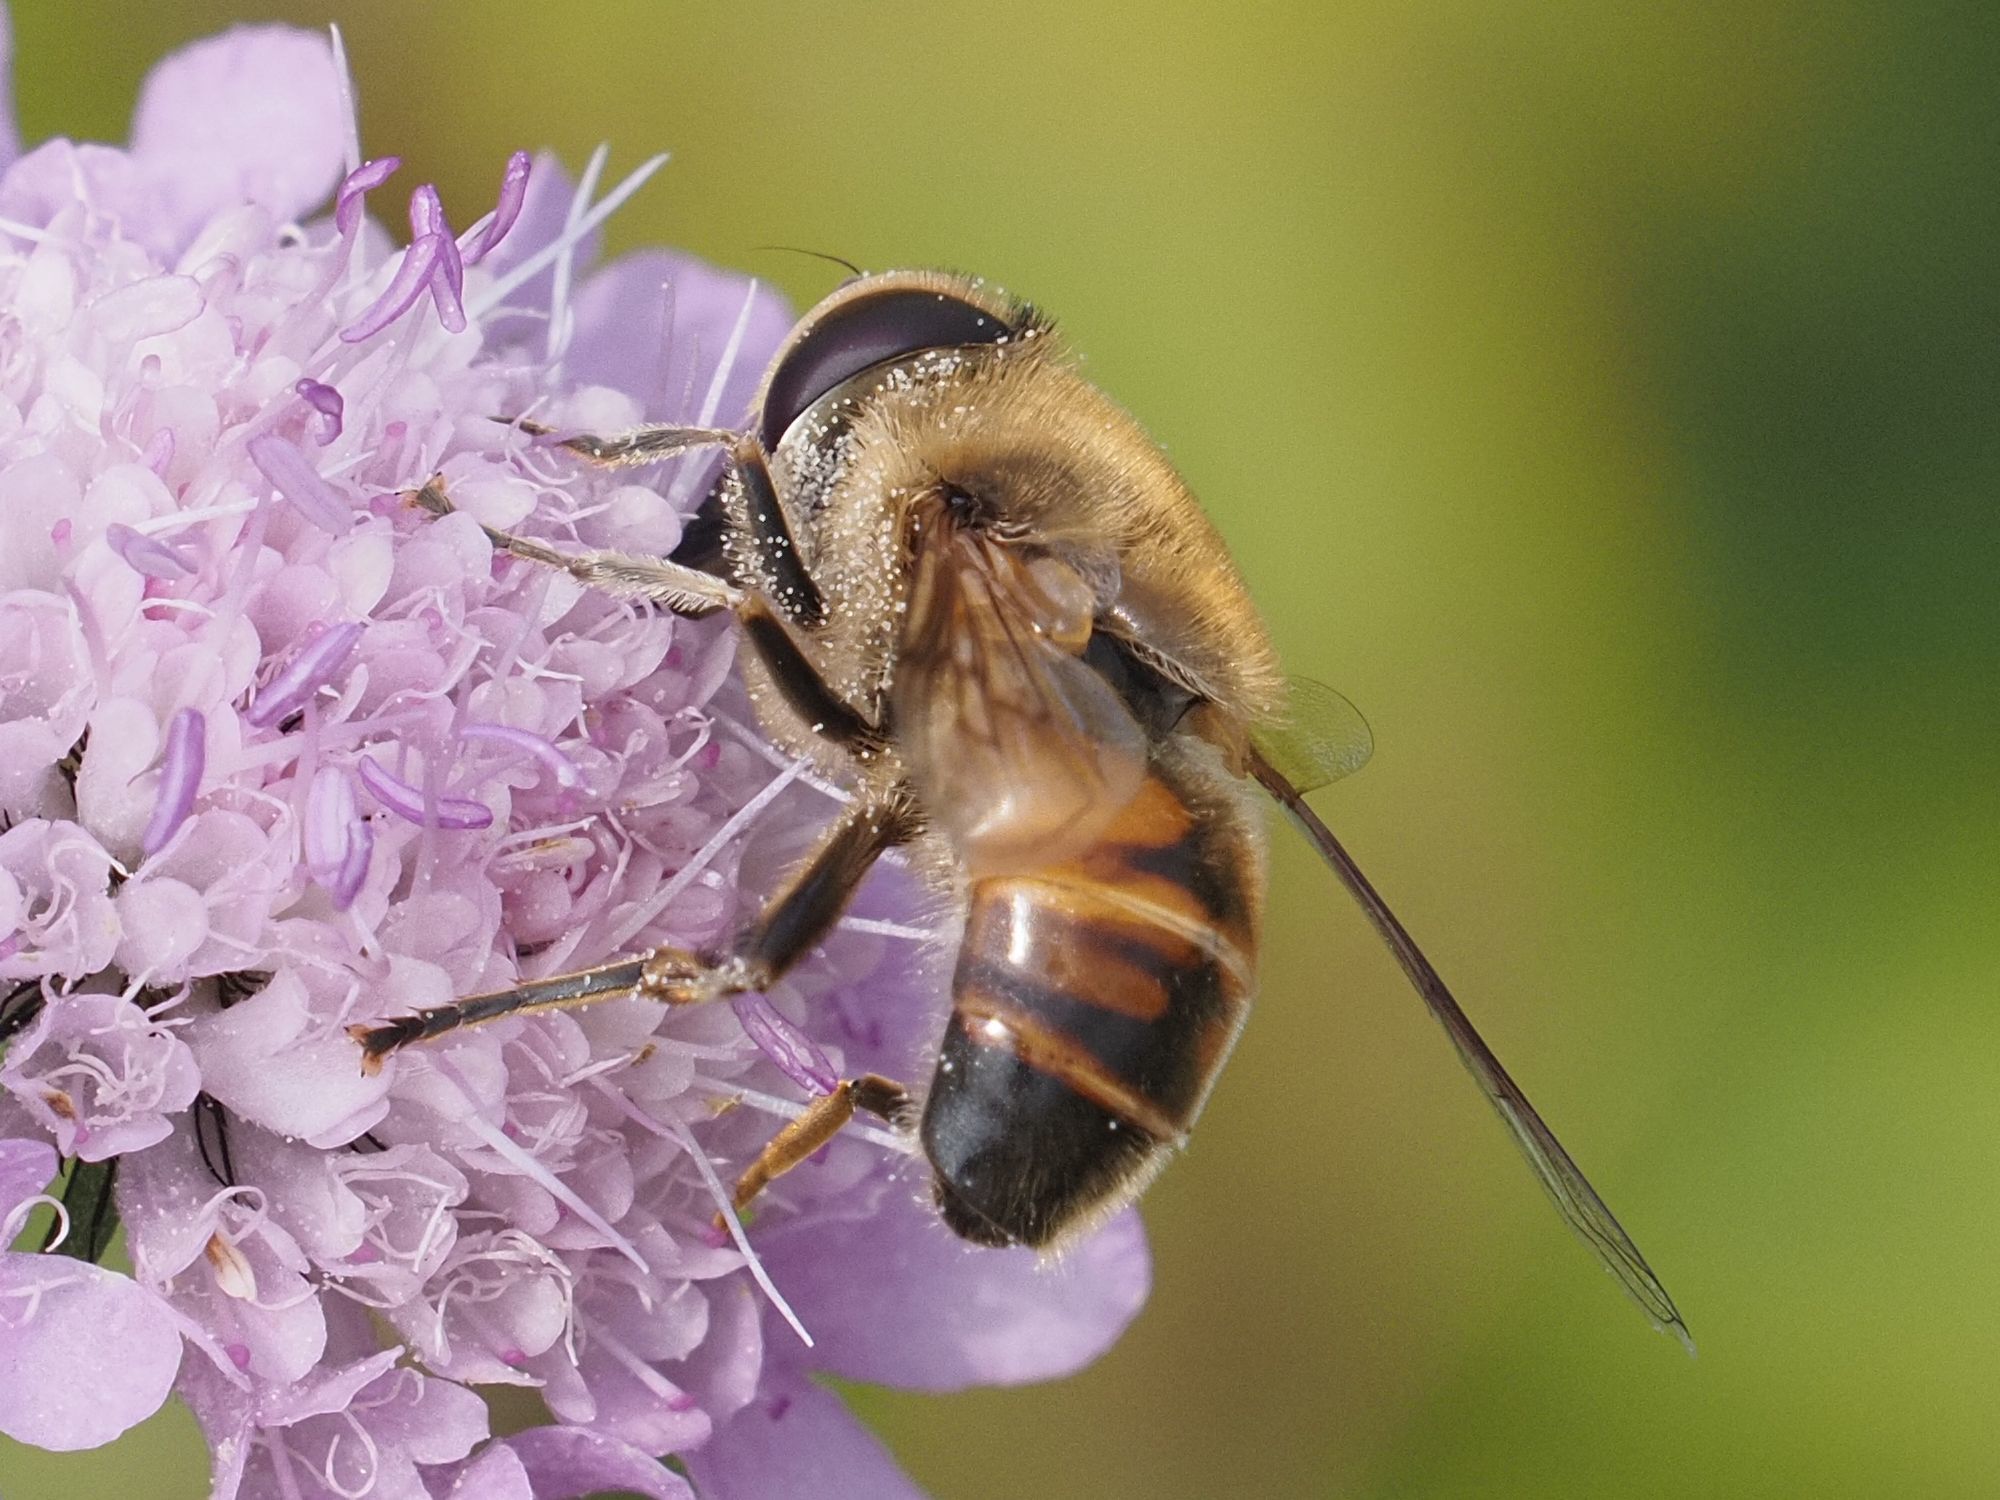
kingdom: Animalia
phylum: Arthropoda
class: Insecta
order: Diptera
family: Syrphidae
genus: Eristalis
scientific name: Eristalis tenax
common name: Drone fly
